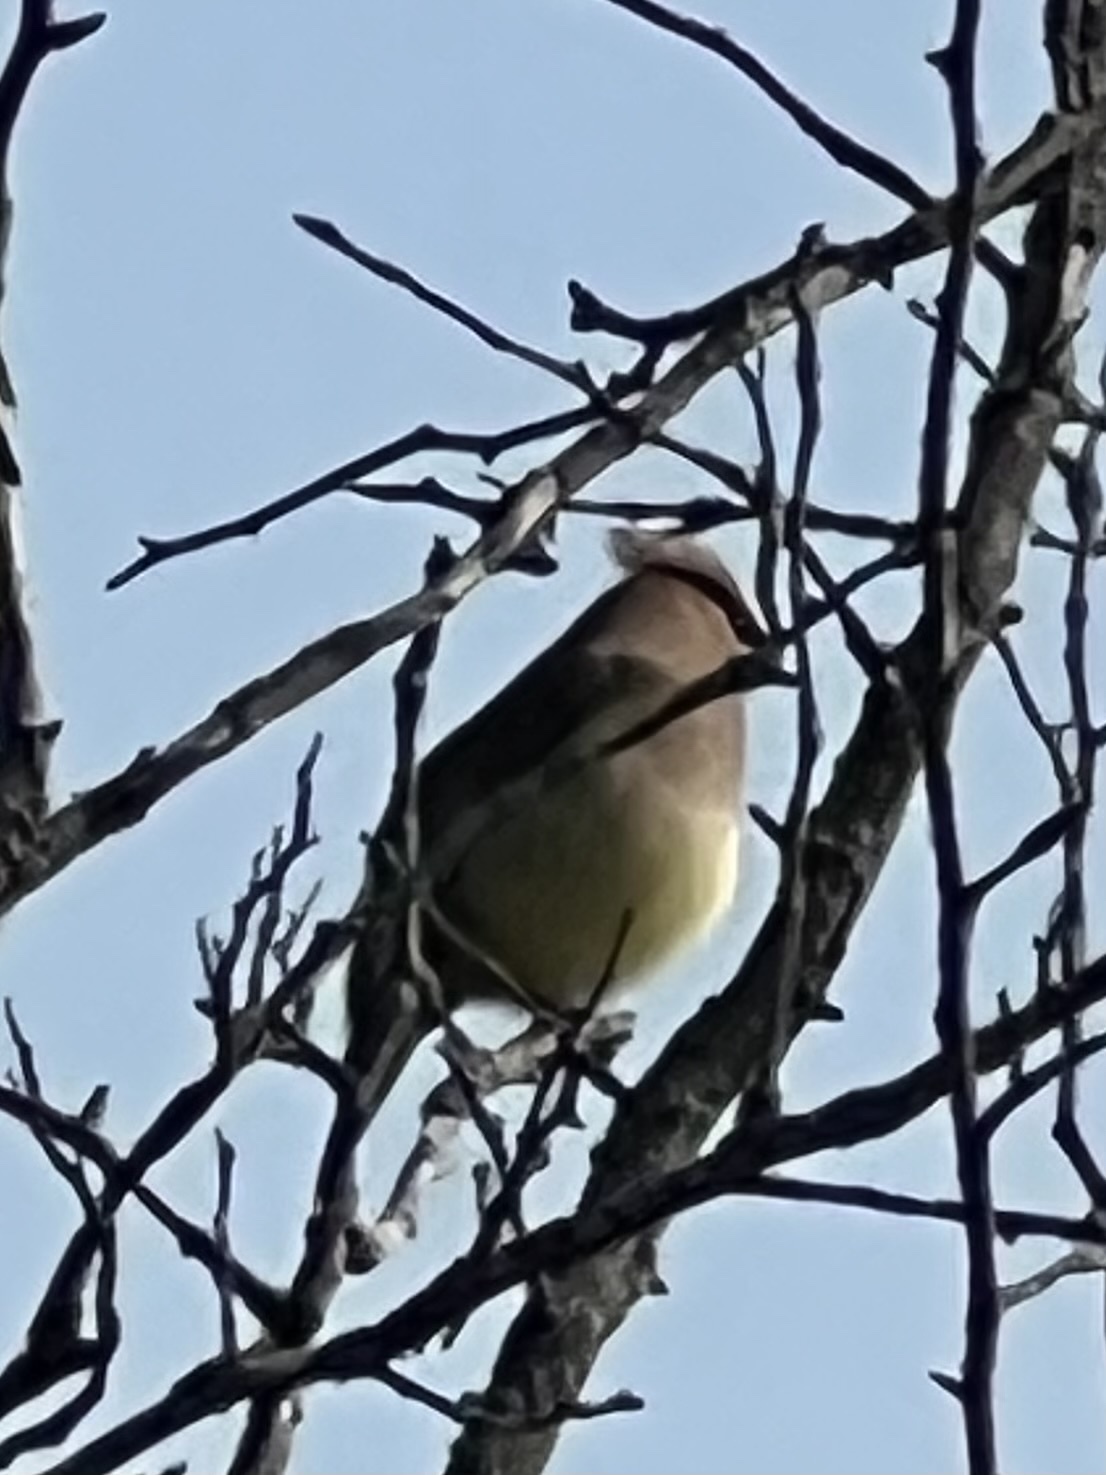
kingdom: Animalia
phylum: Chordata
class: Aves
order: Passeriformes
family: Bombycillidae
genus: Bombycilla
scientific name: Bombycilla cedrorum
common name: Cedar waxwing
